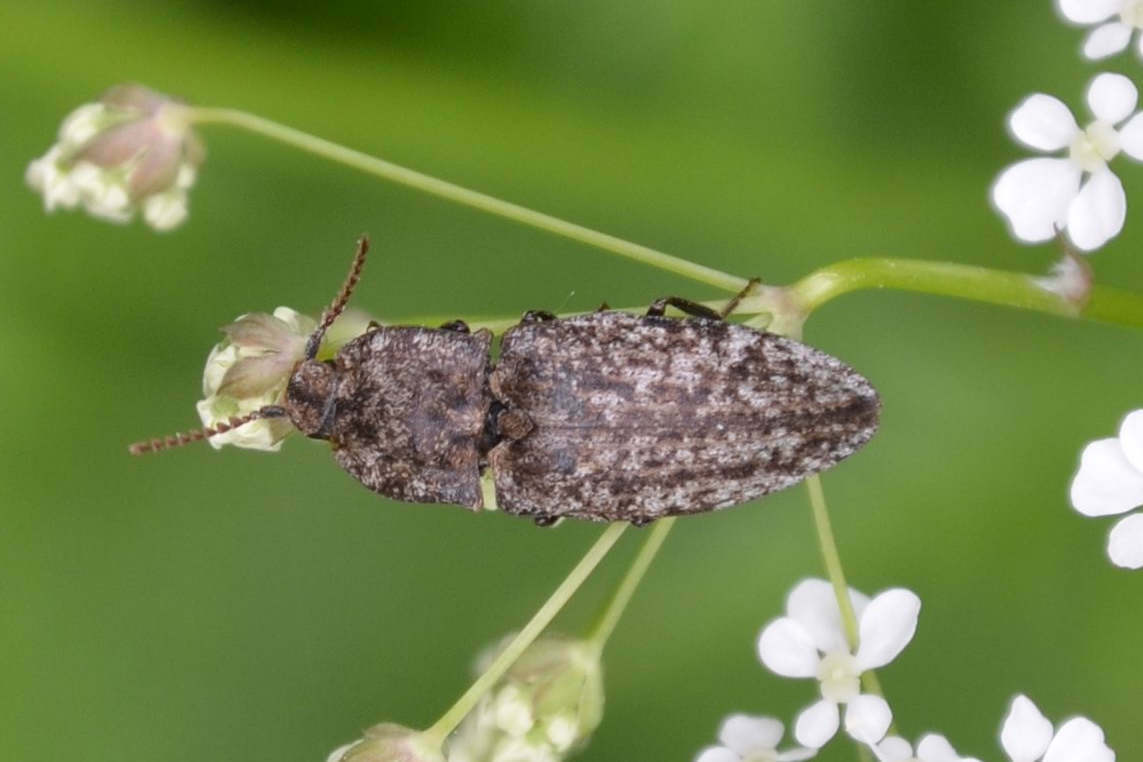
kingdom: Animalia
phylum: Arthropoda
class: Insecta
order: Coleoptera
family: Elateridae
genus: Agrypnus
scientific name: Agrypnus murinus
